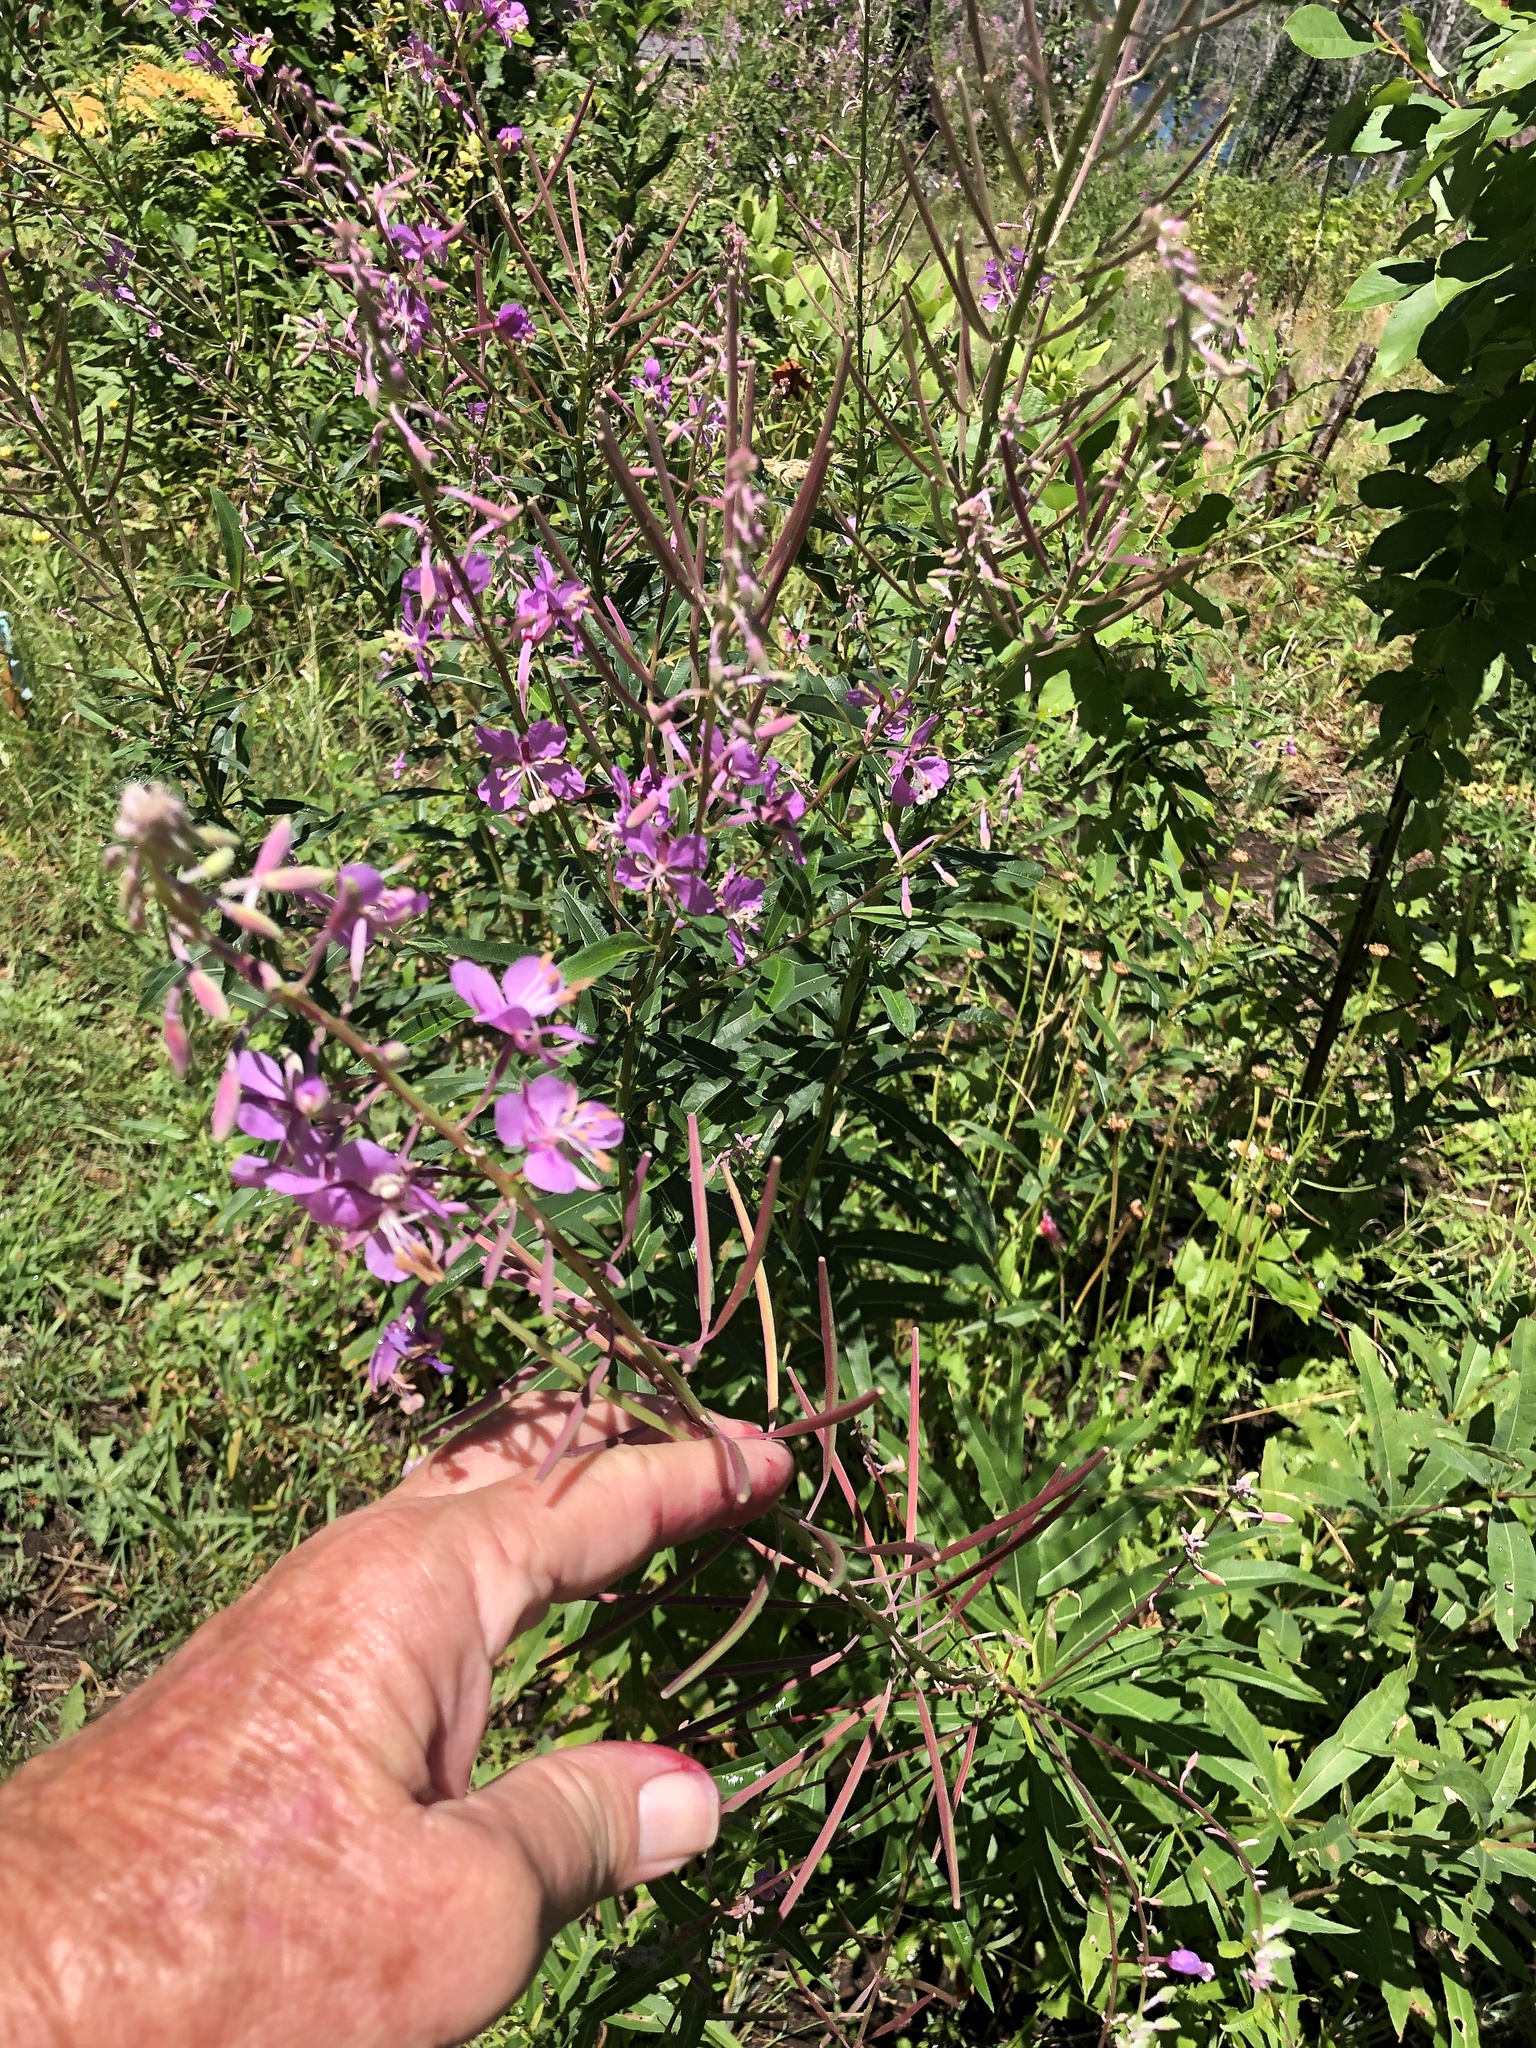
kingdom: Plantae
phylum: Tracheophyta
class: Magnoliopsida
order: Myrtales
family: Onagraceae
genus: Chamaenerion
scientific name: Chamaenerion angustifolium
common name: Fireweed
